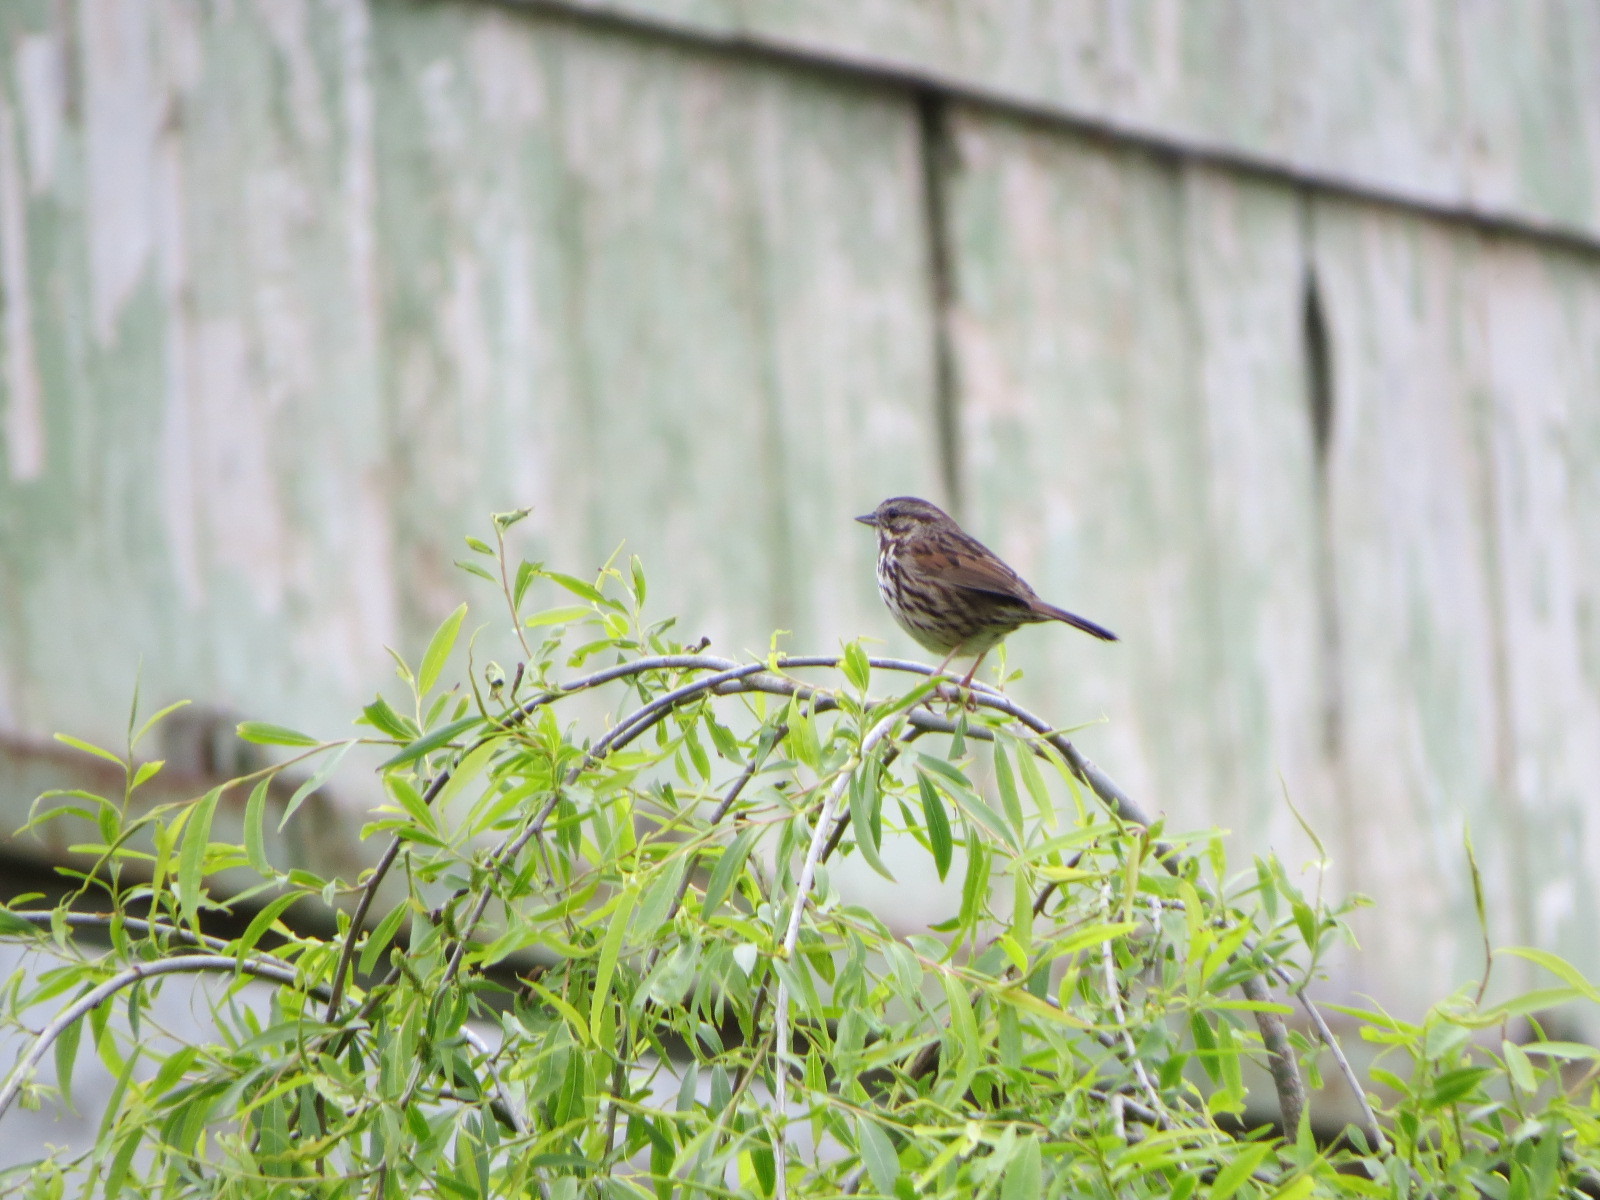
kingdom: Animalia
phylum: Chordata
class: Aves
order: Passeriformes
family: Passerellidae
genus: Melospiza
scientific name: Melospiza melodia
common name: Song sparrow
